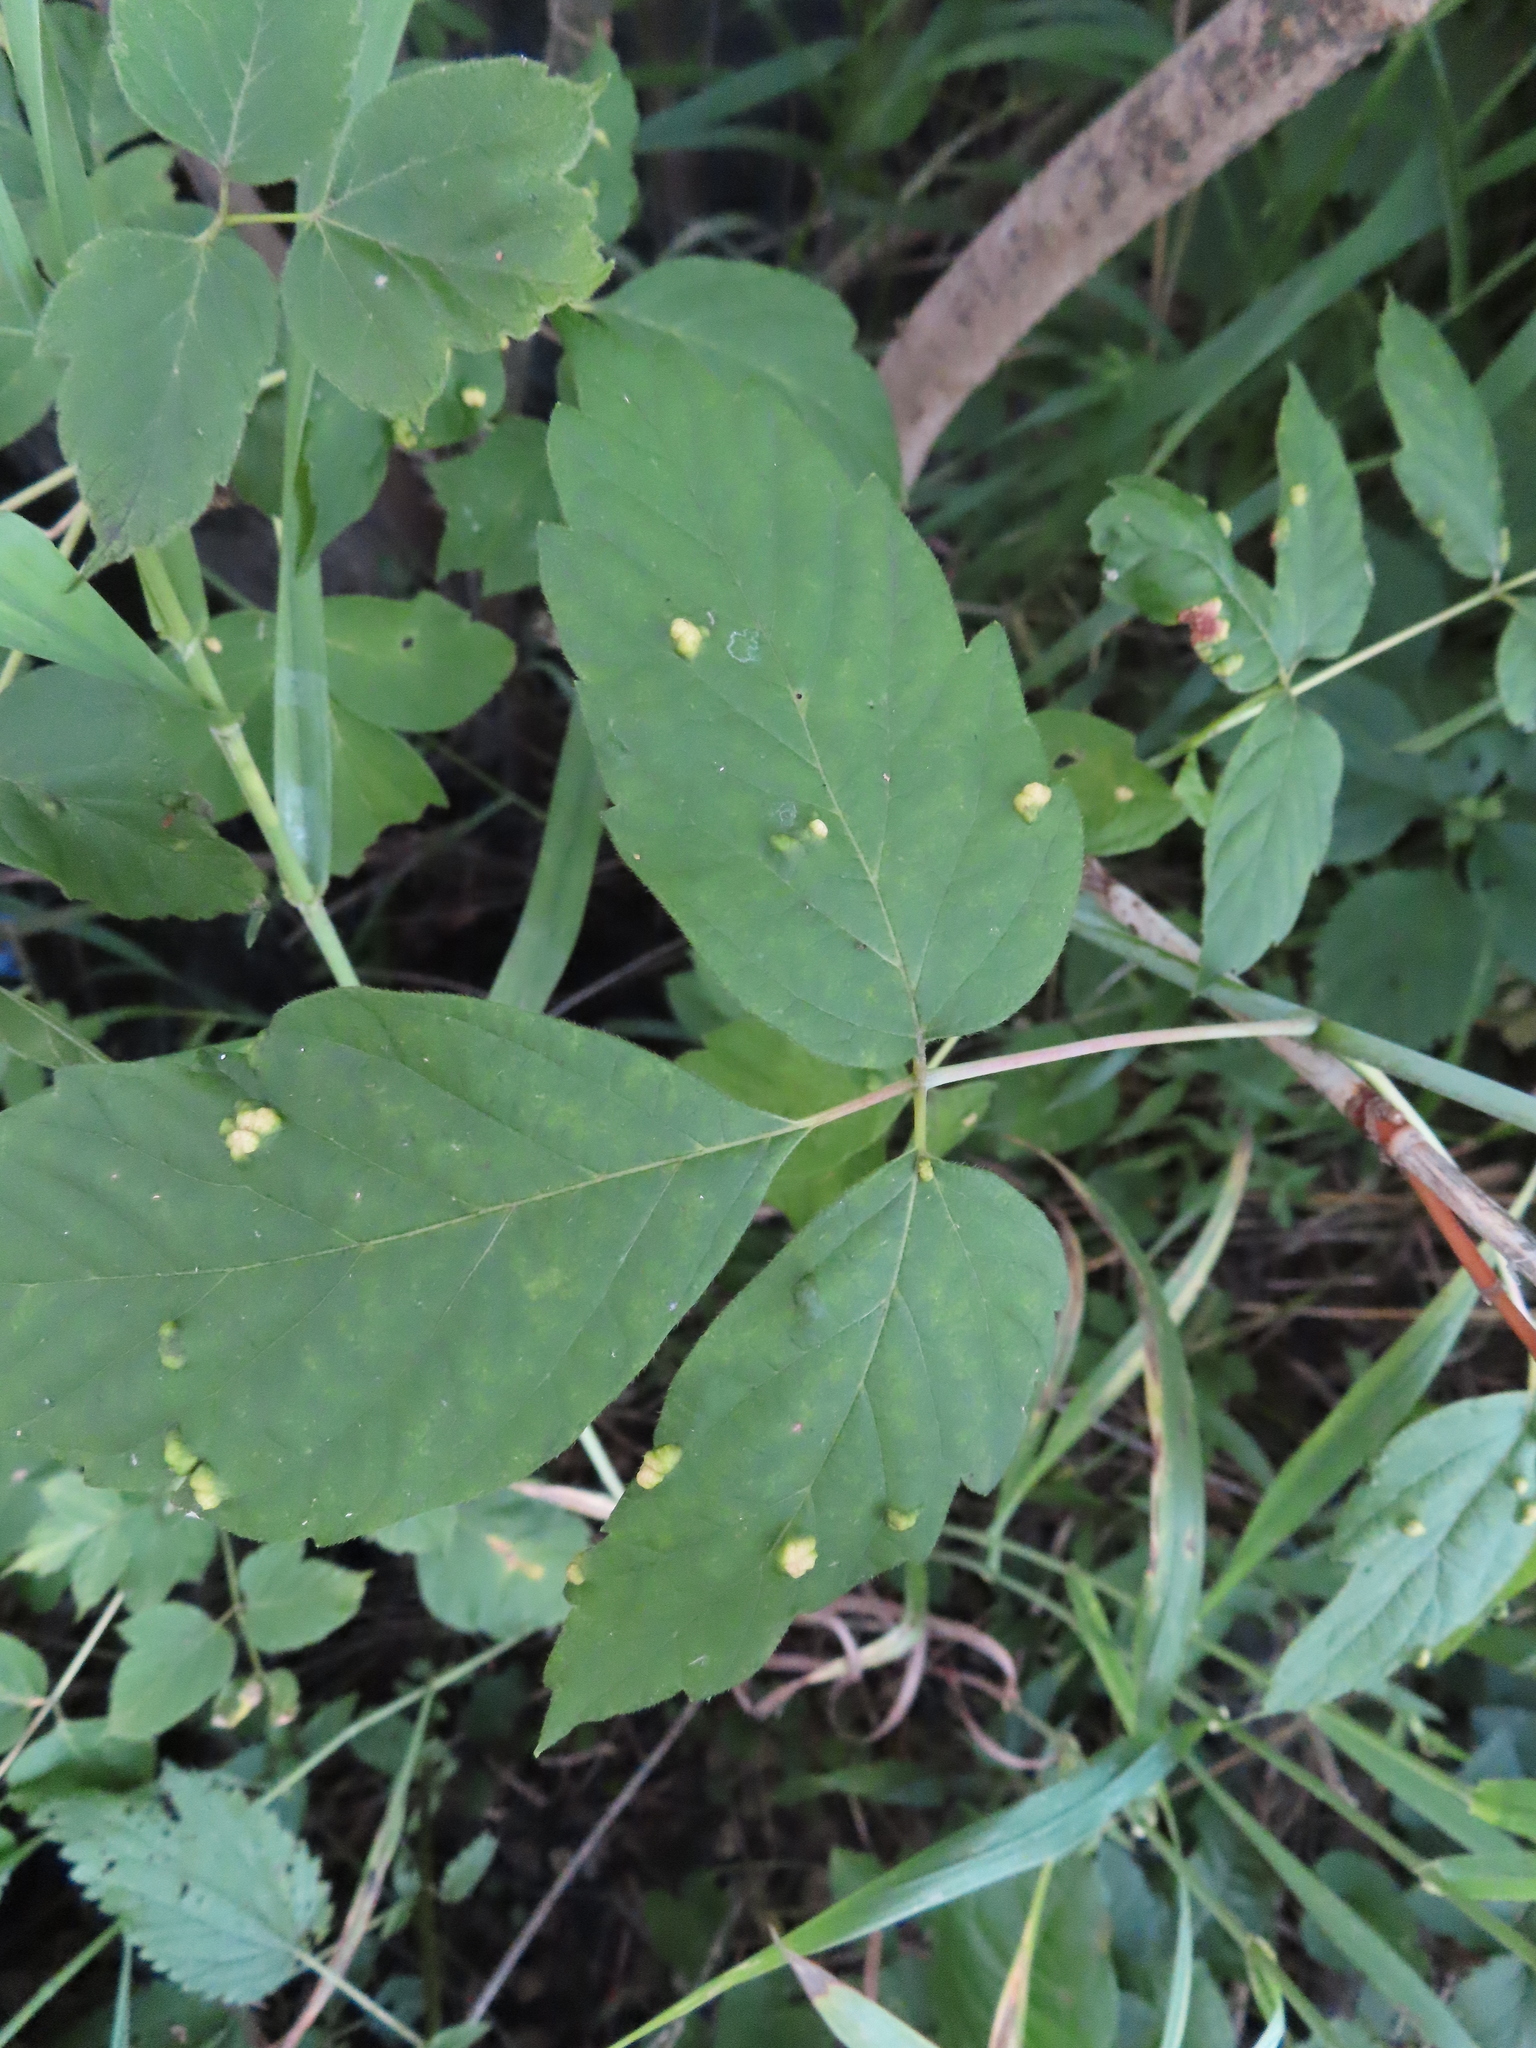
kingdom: Plantae
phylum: Tracheophyta
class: Magnoliopsida
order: Sapindales
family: Sapindaceae
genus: Acer
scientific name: Acer negundo
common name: Ashleaf maple
